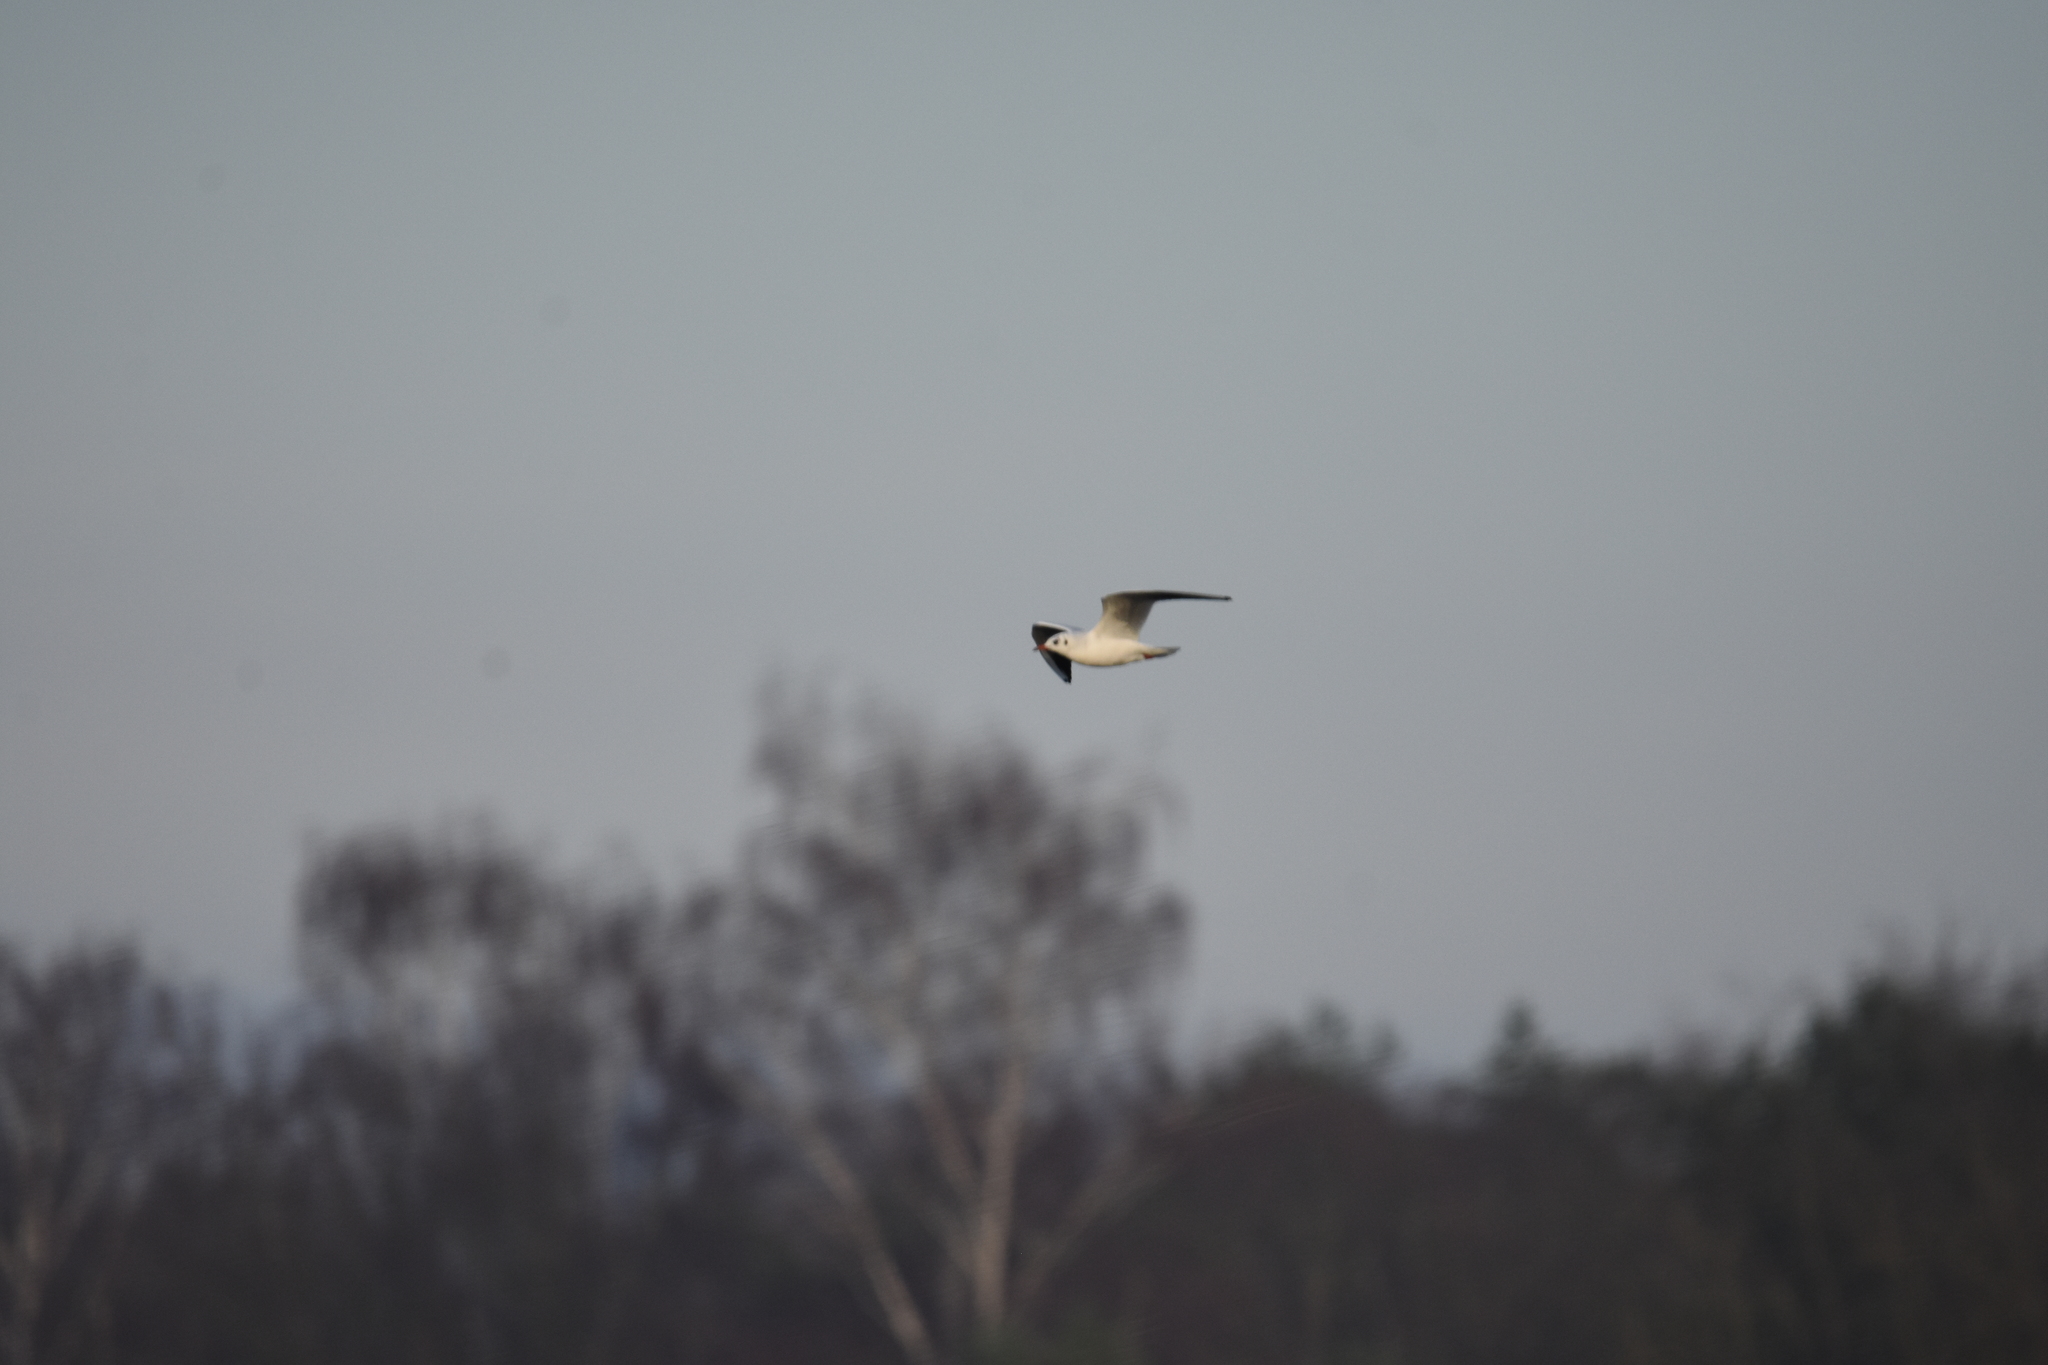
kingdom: Animalia
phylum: Chordata
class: Aves
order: Charadriiformes
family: Laridae
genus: Chroicocephalus
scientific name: Chroicocephalus ridibundus
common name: Black-headed gull
